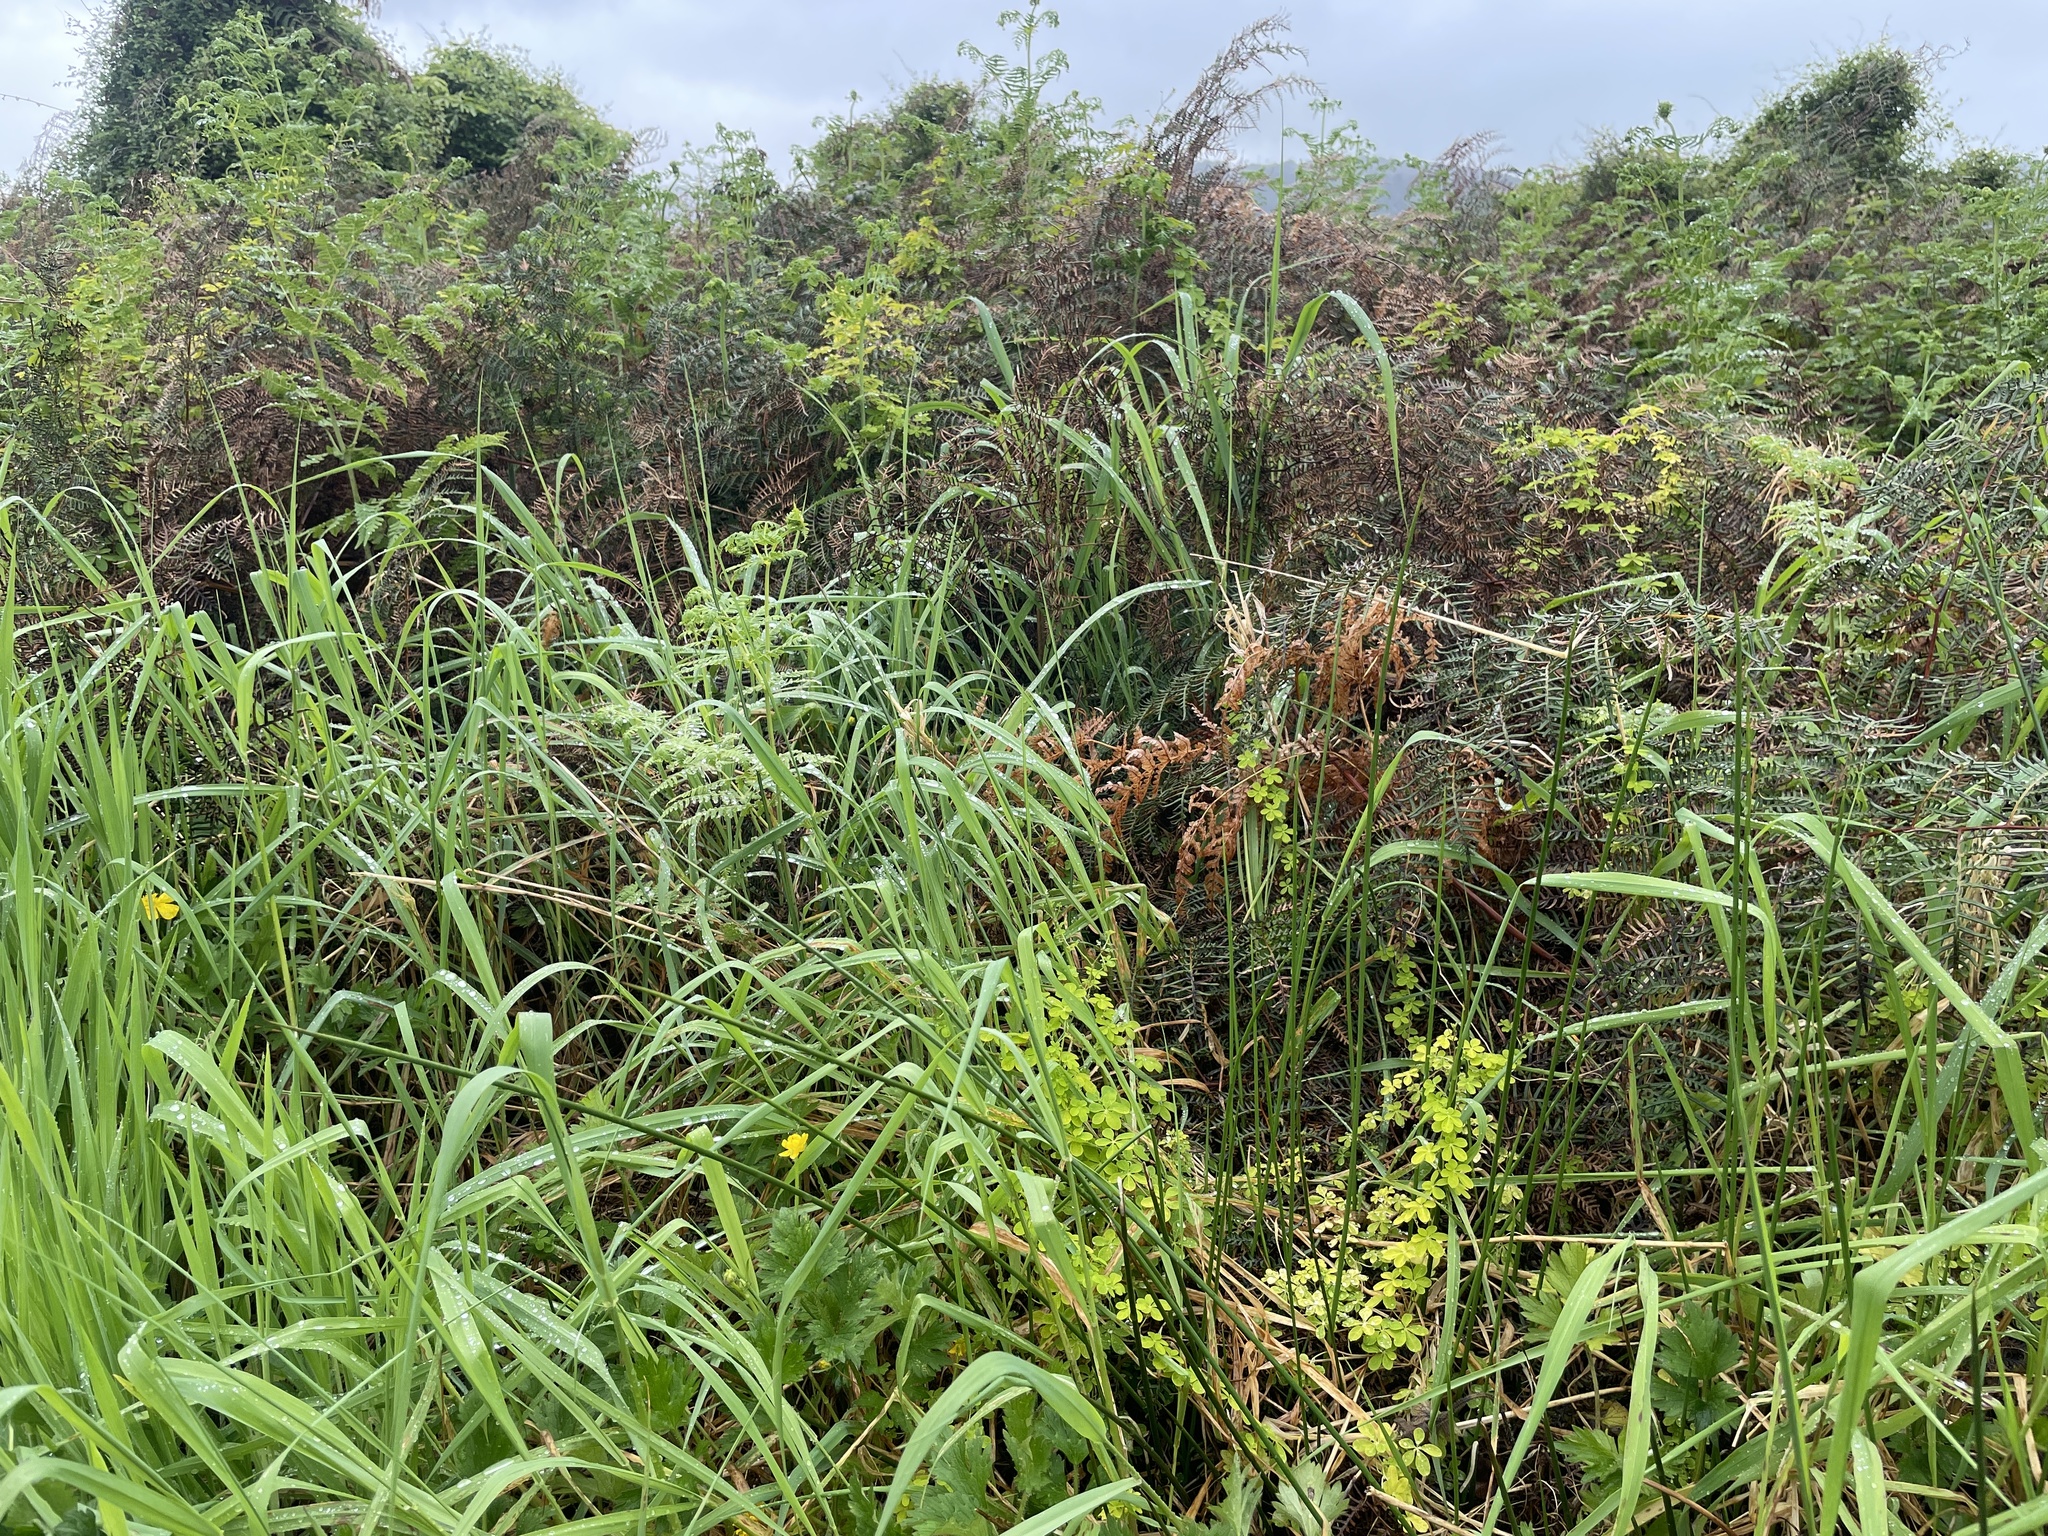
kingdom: Plantae
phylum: Tracheophyta
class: Magnoliopsida
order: Brassicales
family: Tropaeolaceae
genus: Tropaeolum
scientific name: Tropaeolum speciosum
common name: Flame nasturtium
